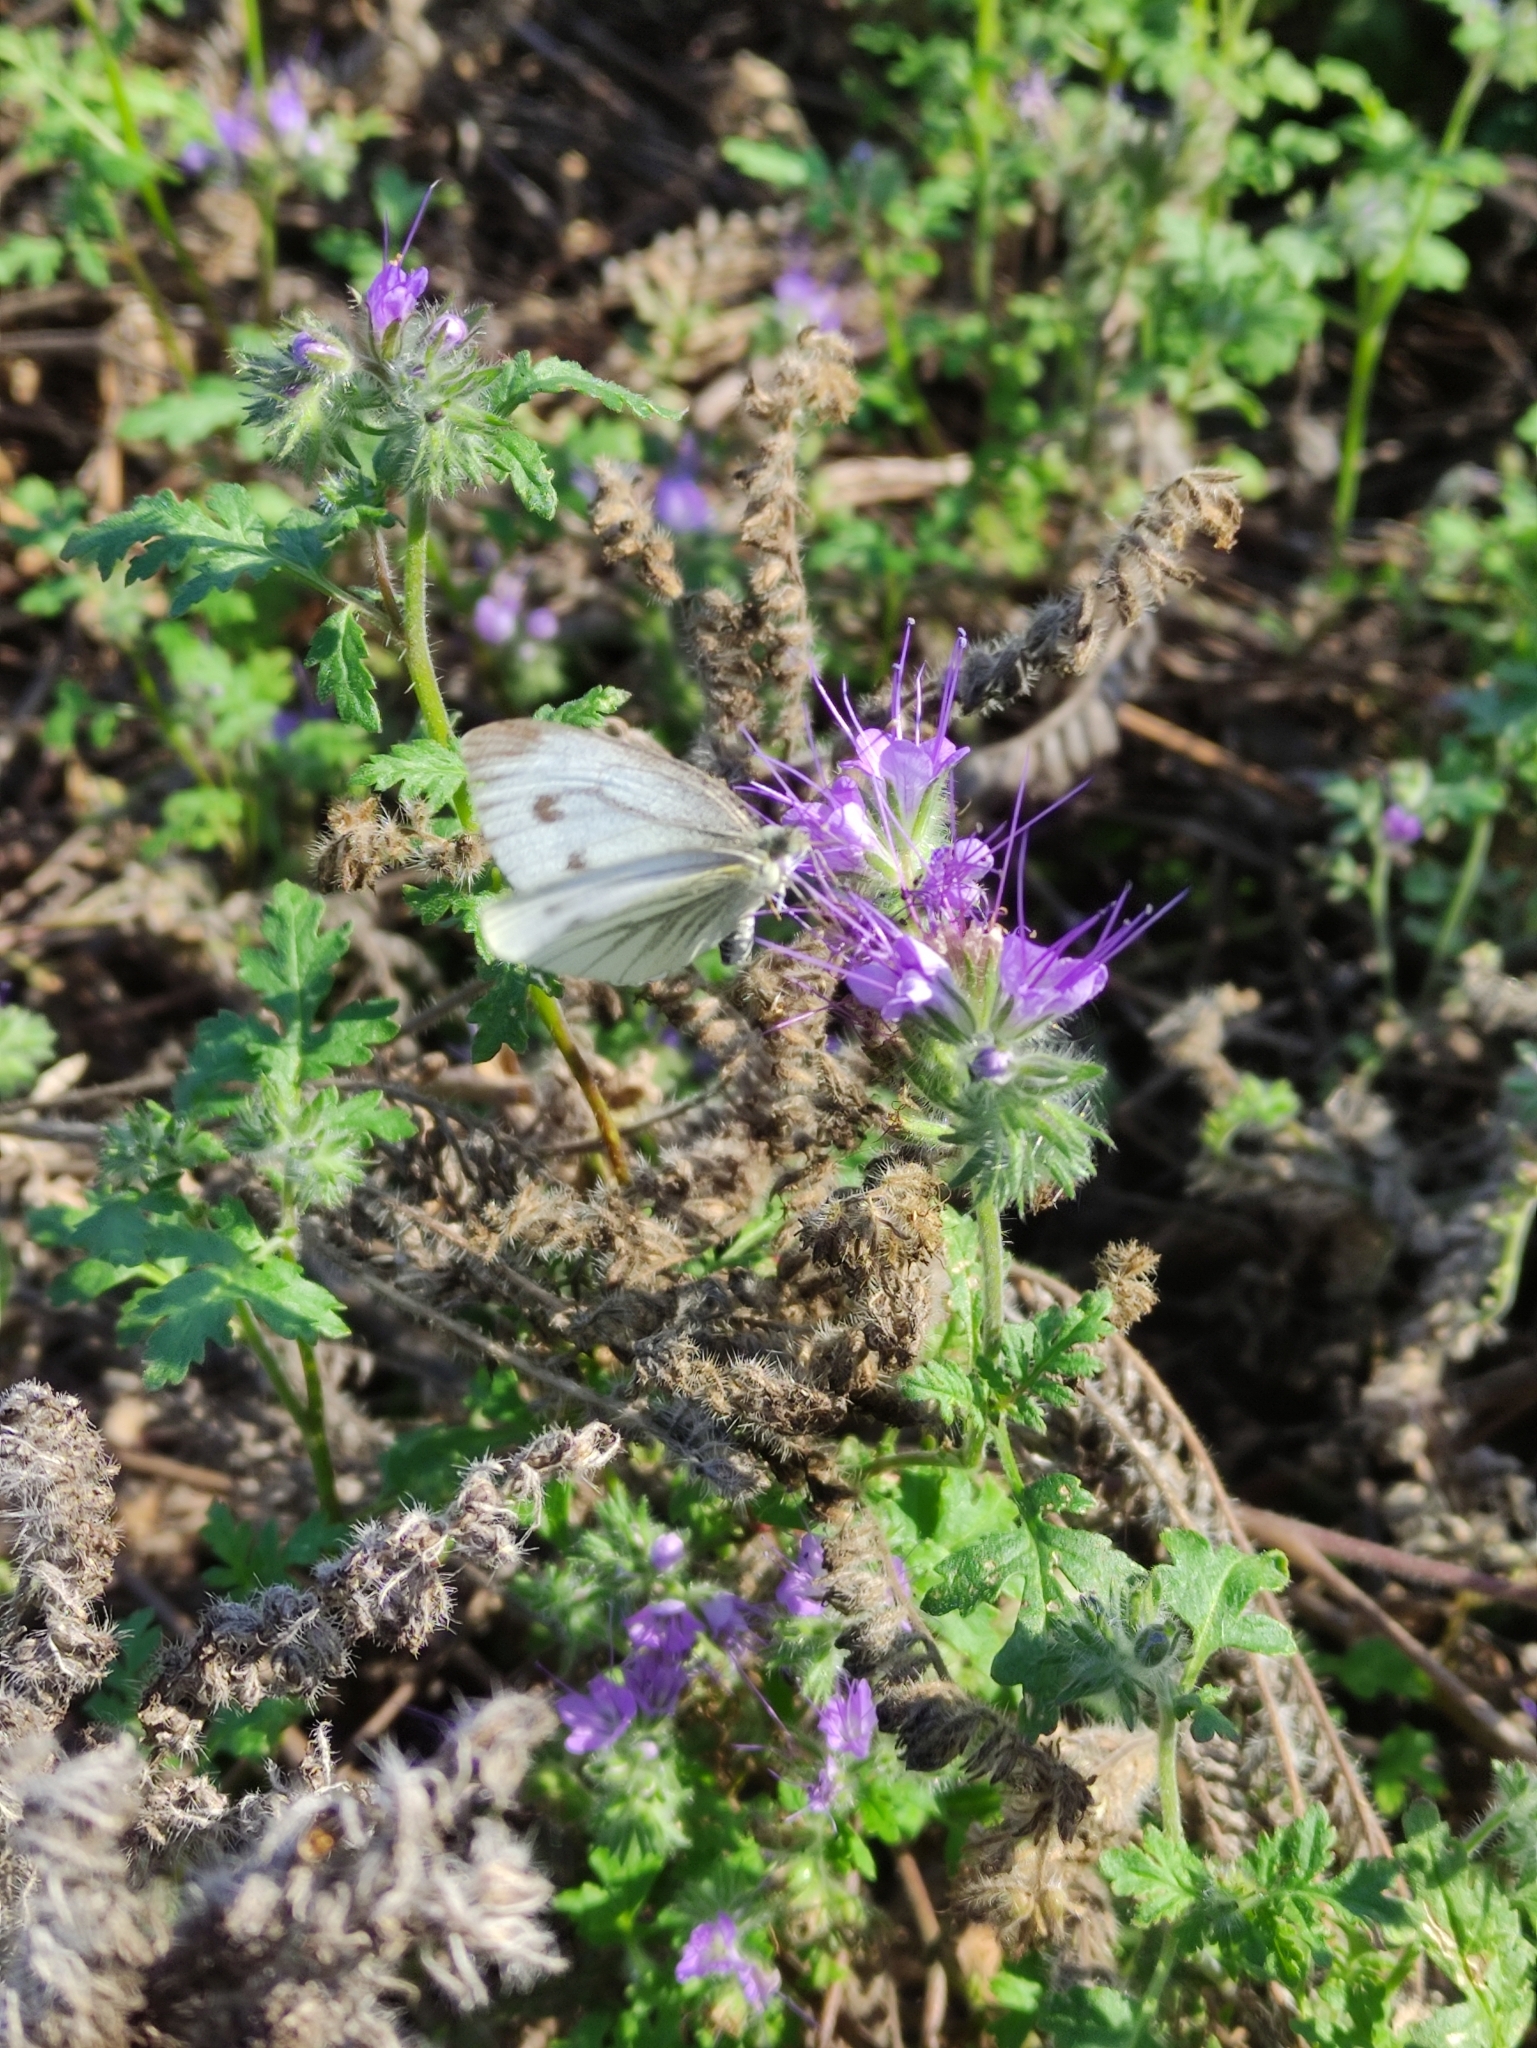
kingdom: Animalia
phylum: Arthropoda
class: Insecta
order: Lepidoptera
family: Pieridae
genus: Pieris
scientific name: Pieris napi
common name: Green-veined white
